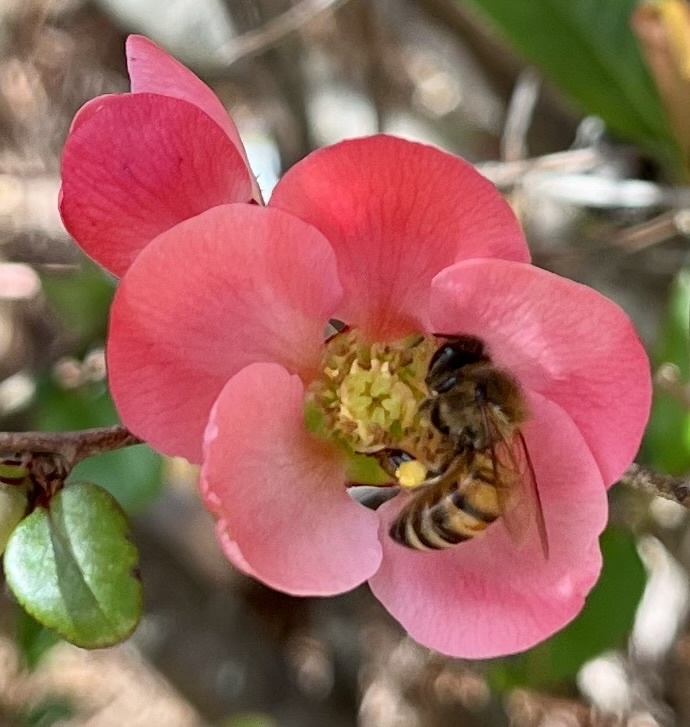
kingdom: Animalia
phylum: Arthropoda
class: Insecta
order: Hymenoptera
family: Apidae
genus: Apis
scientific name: Apis mellifera
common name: Honey bee
